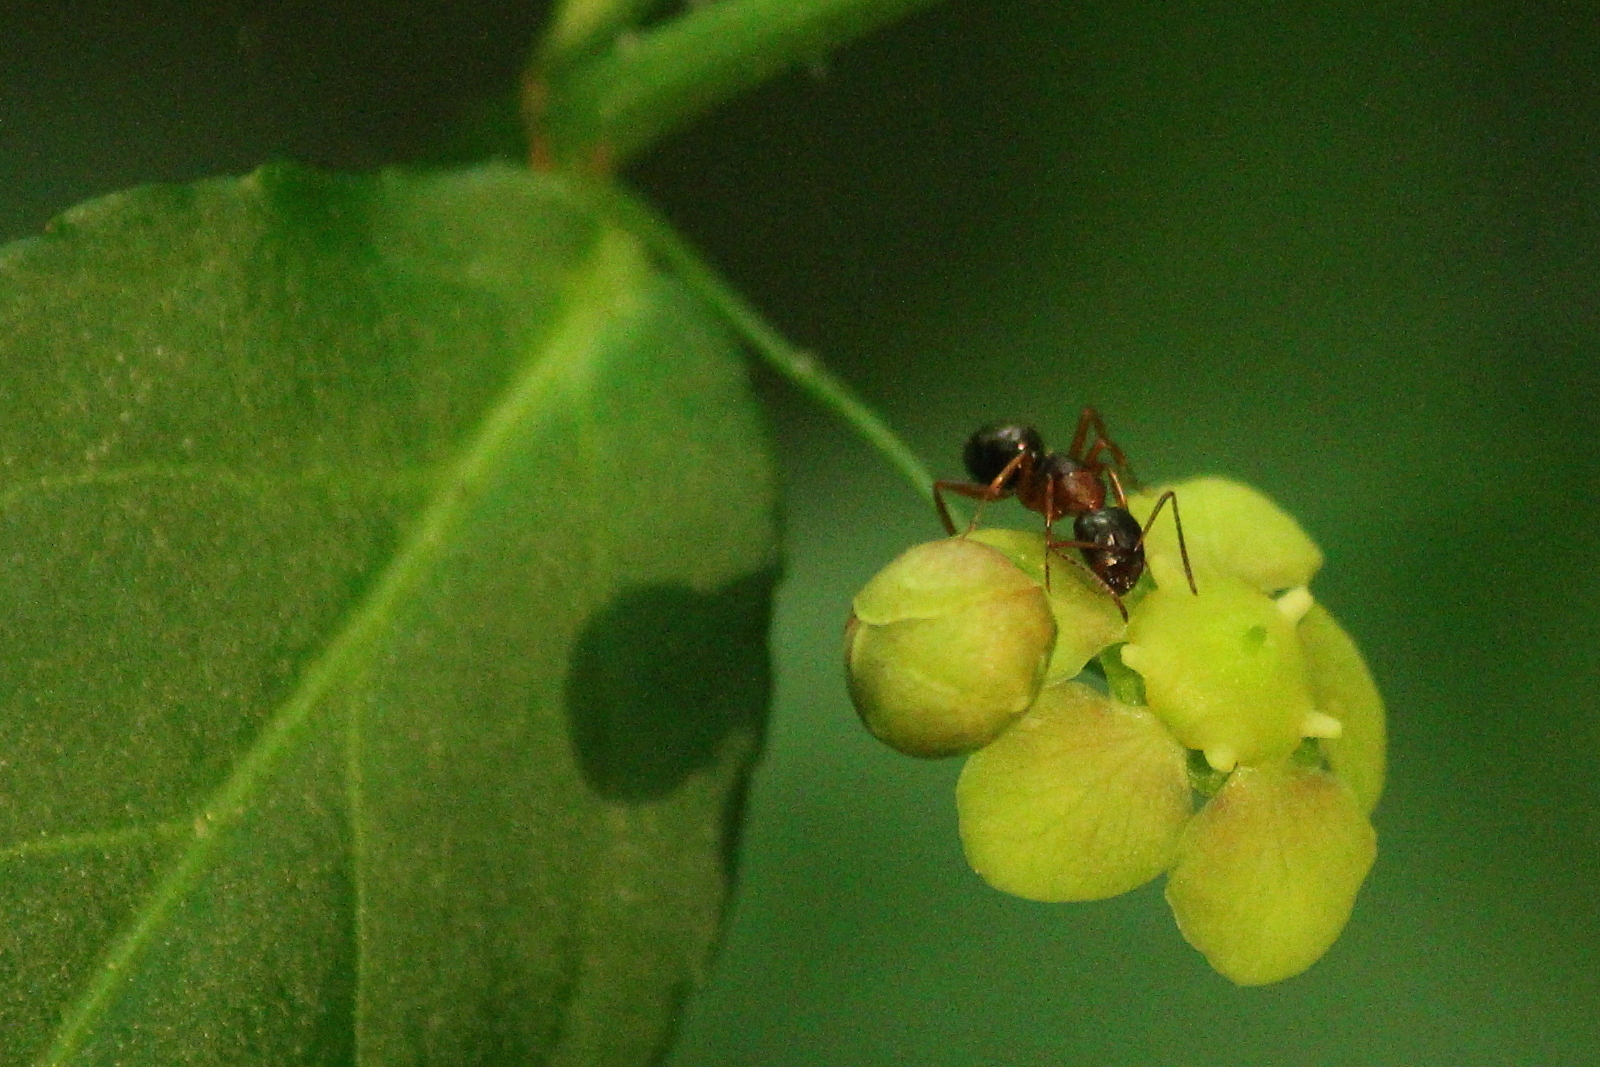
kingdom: Plantae
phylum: Tracheophyta
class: Magnoliopsida
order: Celastrales
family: Celastraceae
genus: Euonymus
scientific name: Euonymus americanus
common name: Bursting-heart
